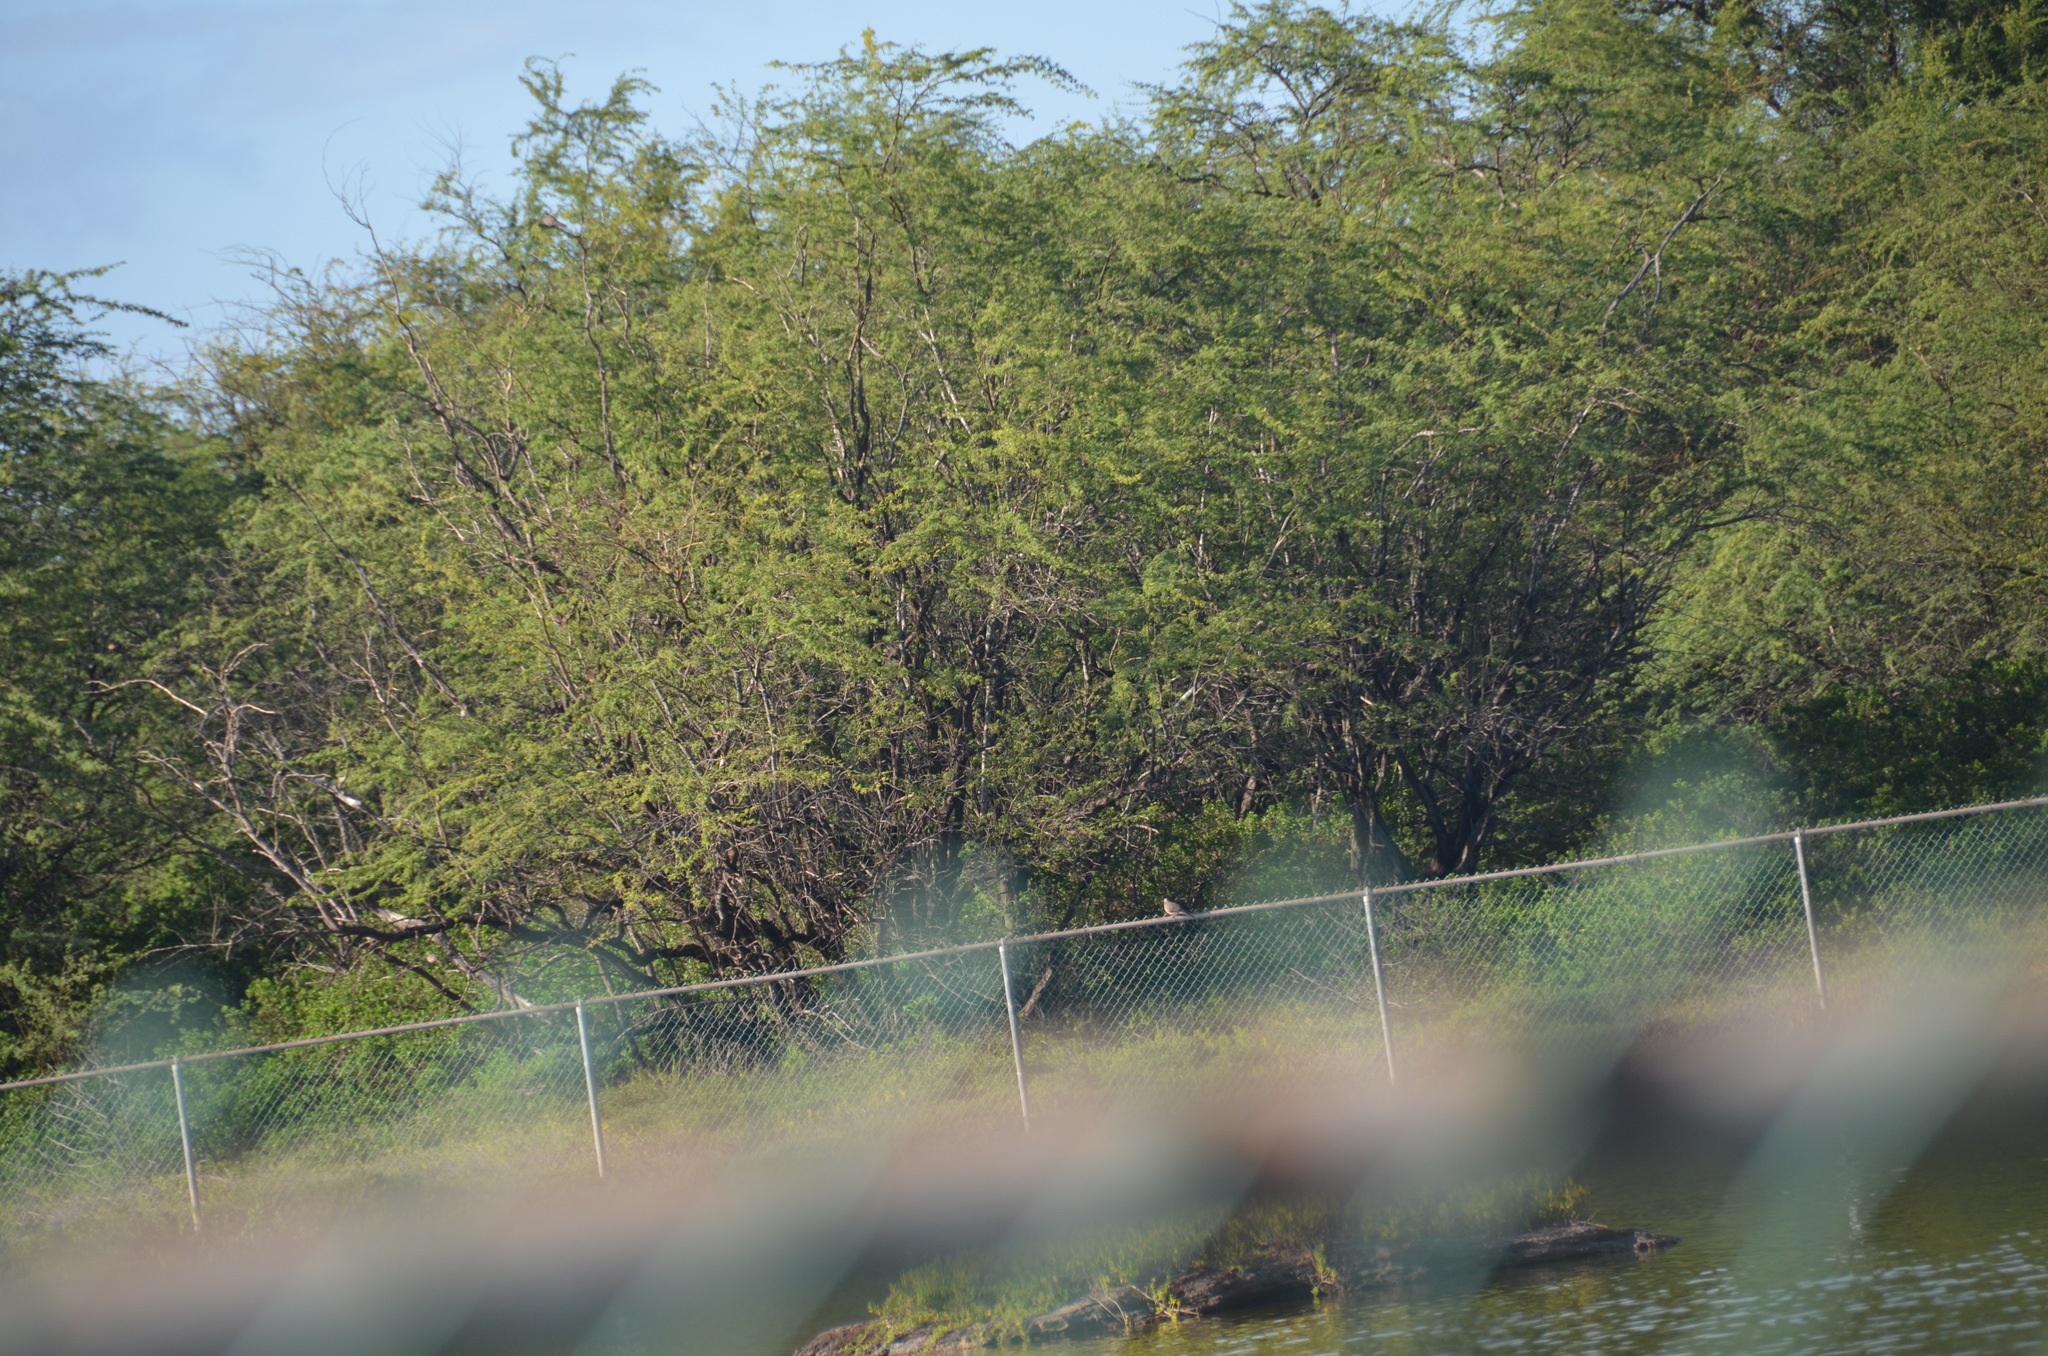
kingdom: Animalia
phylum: Chordata
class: Aves
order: Columbiformes
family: Columbidae
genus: Spilopelia
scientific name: Spilopelia chinensis
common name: Spotted dove
